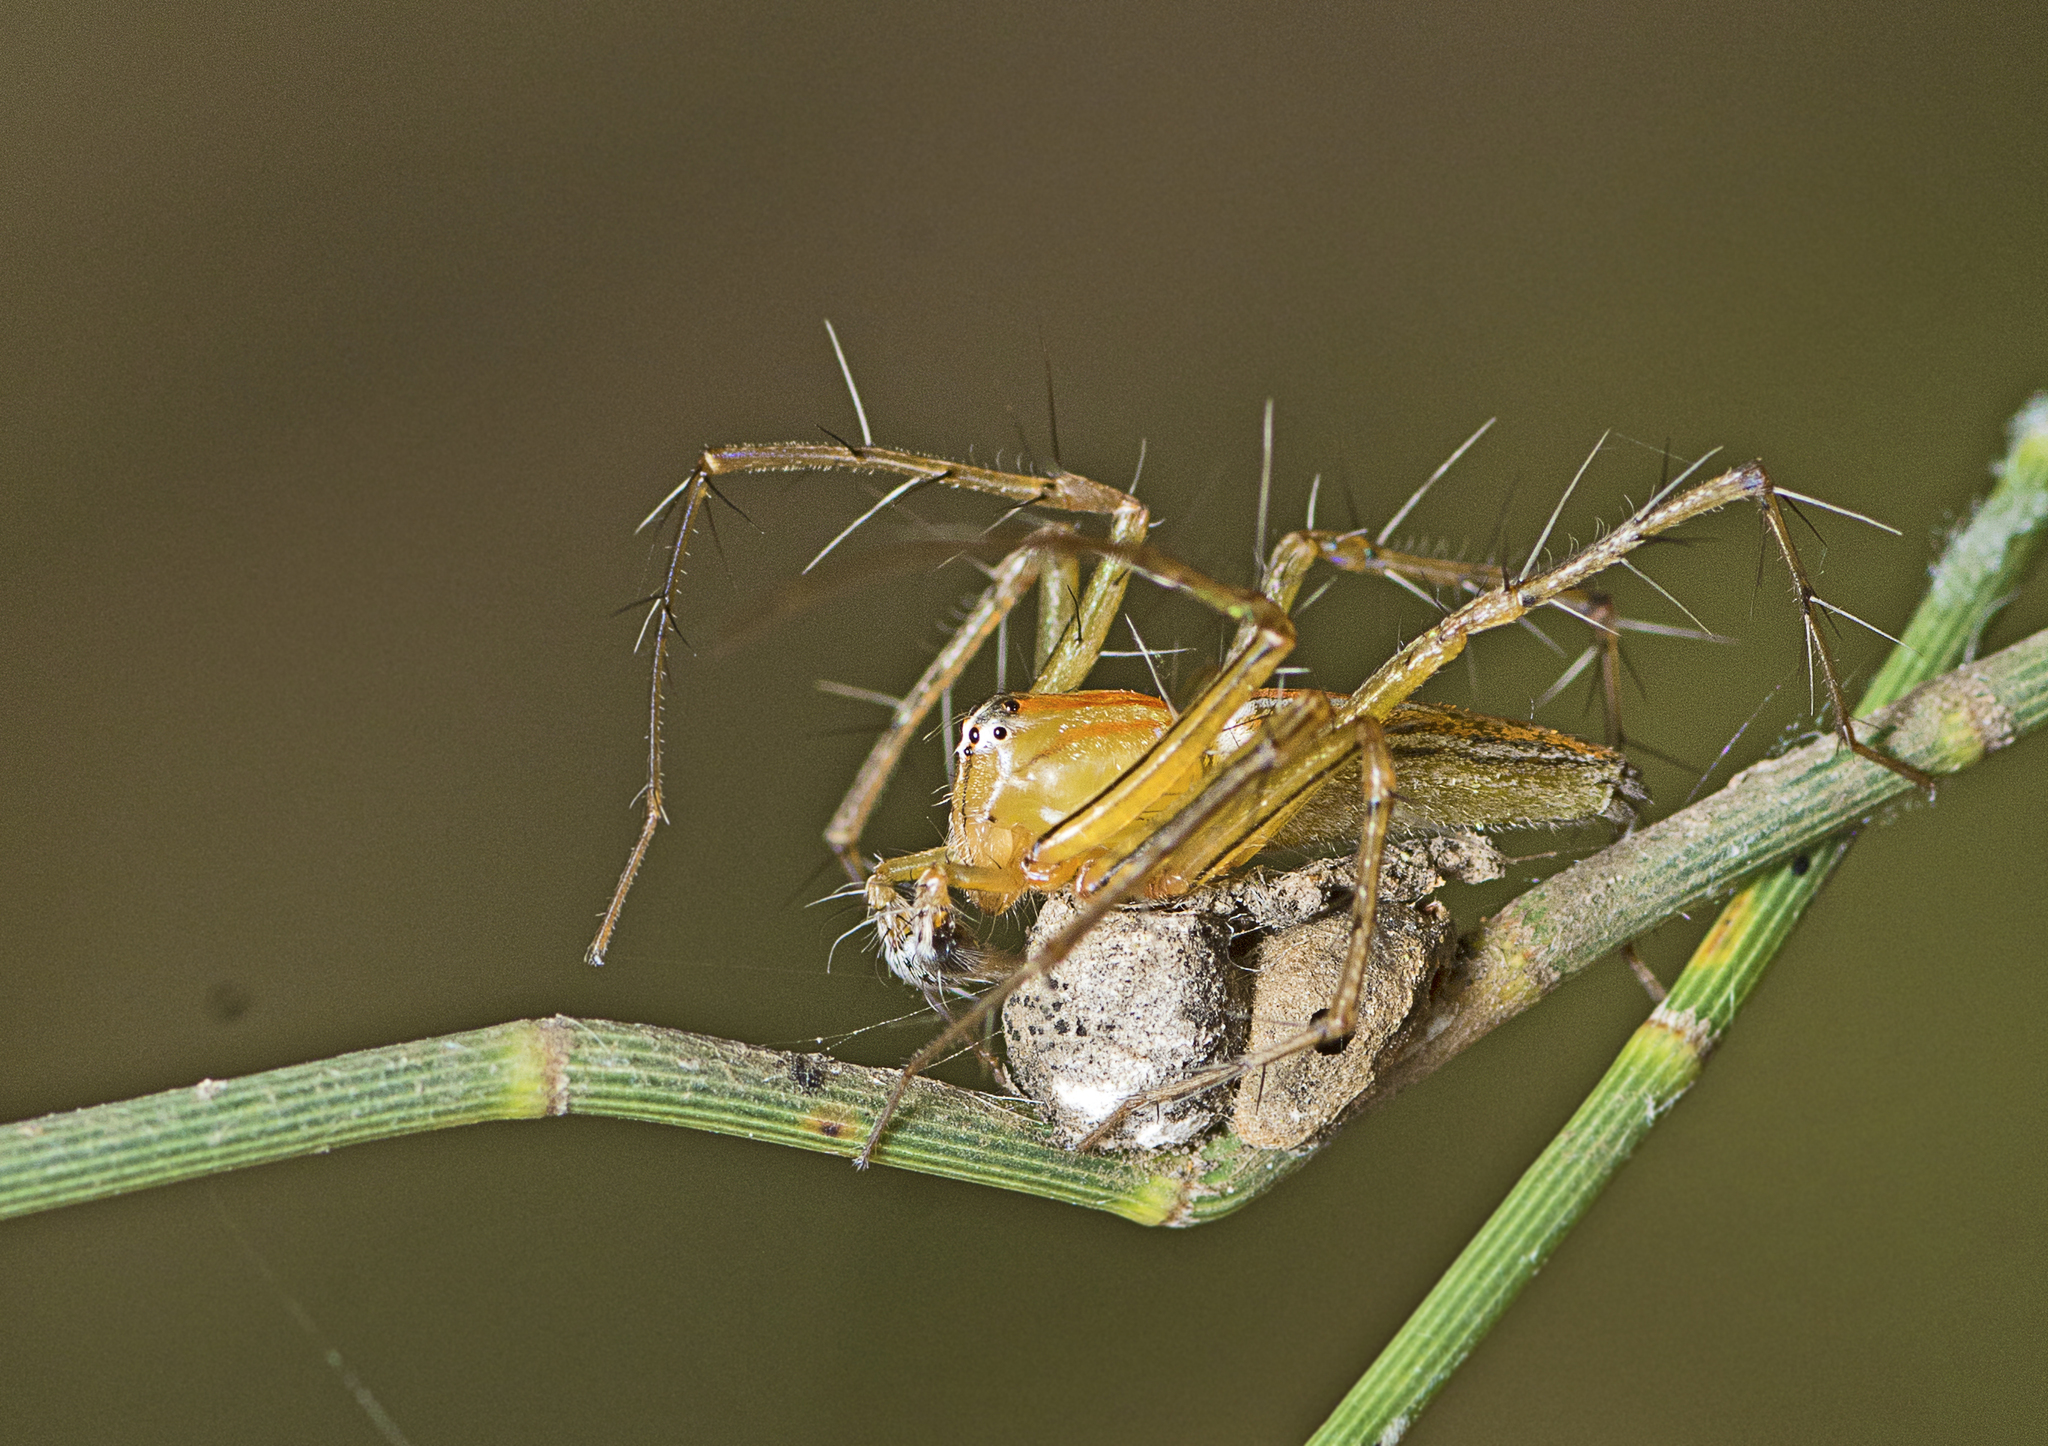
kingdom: Animalia
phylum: Arthropoda
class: Arachnida
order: Araneae
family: Oxyopidae
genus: Oxyopes
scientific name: Oxyopes macilentus
